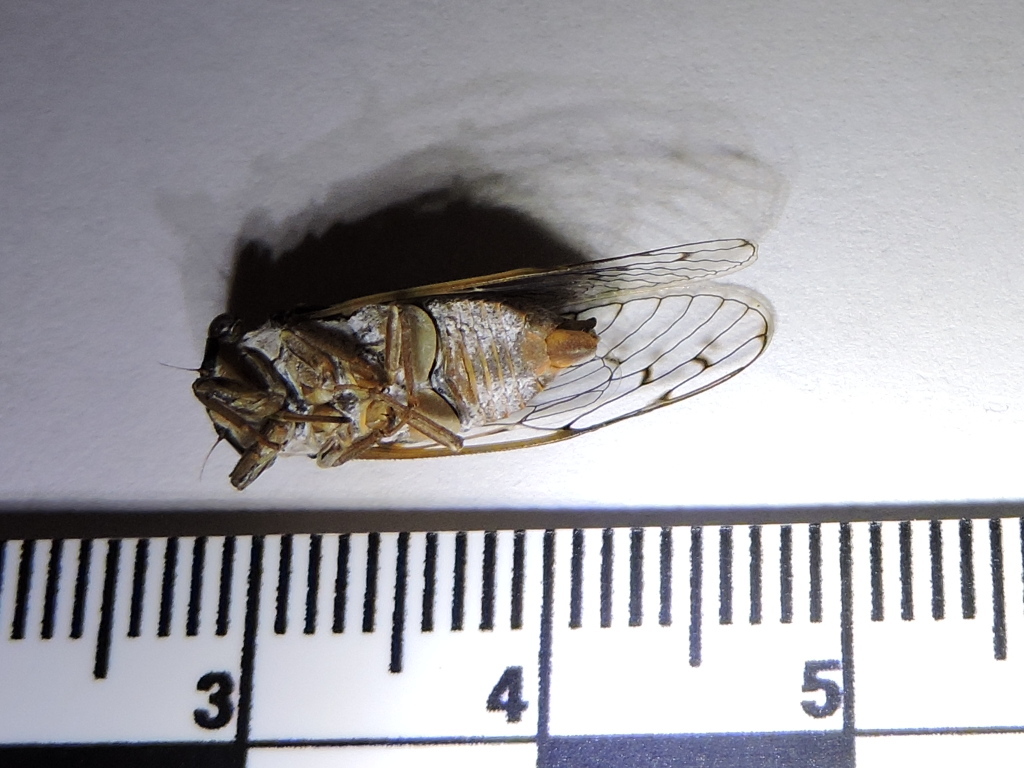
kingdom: Animalia
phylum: Arthropoda
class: Insecta
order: Hemiptera
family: Cicadidae
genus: Pacarina
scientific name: Pacarina puella
